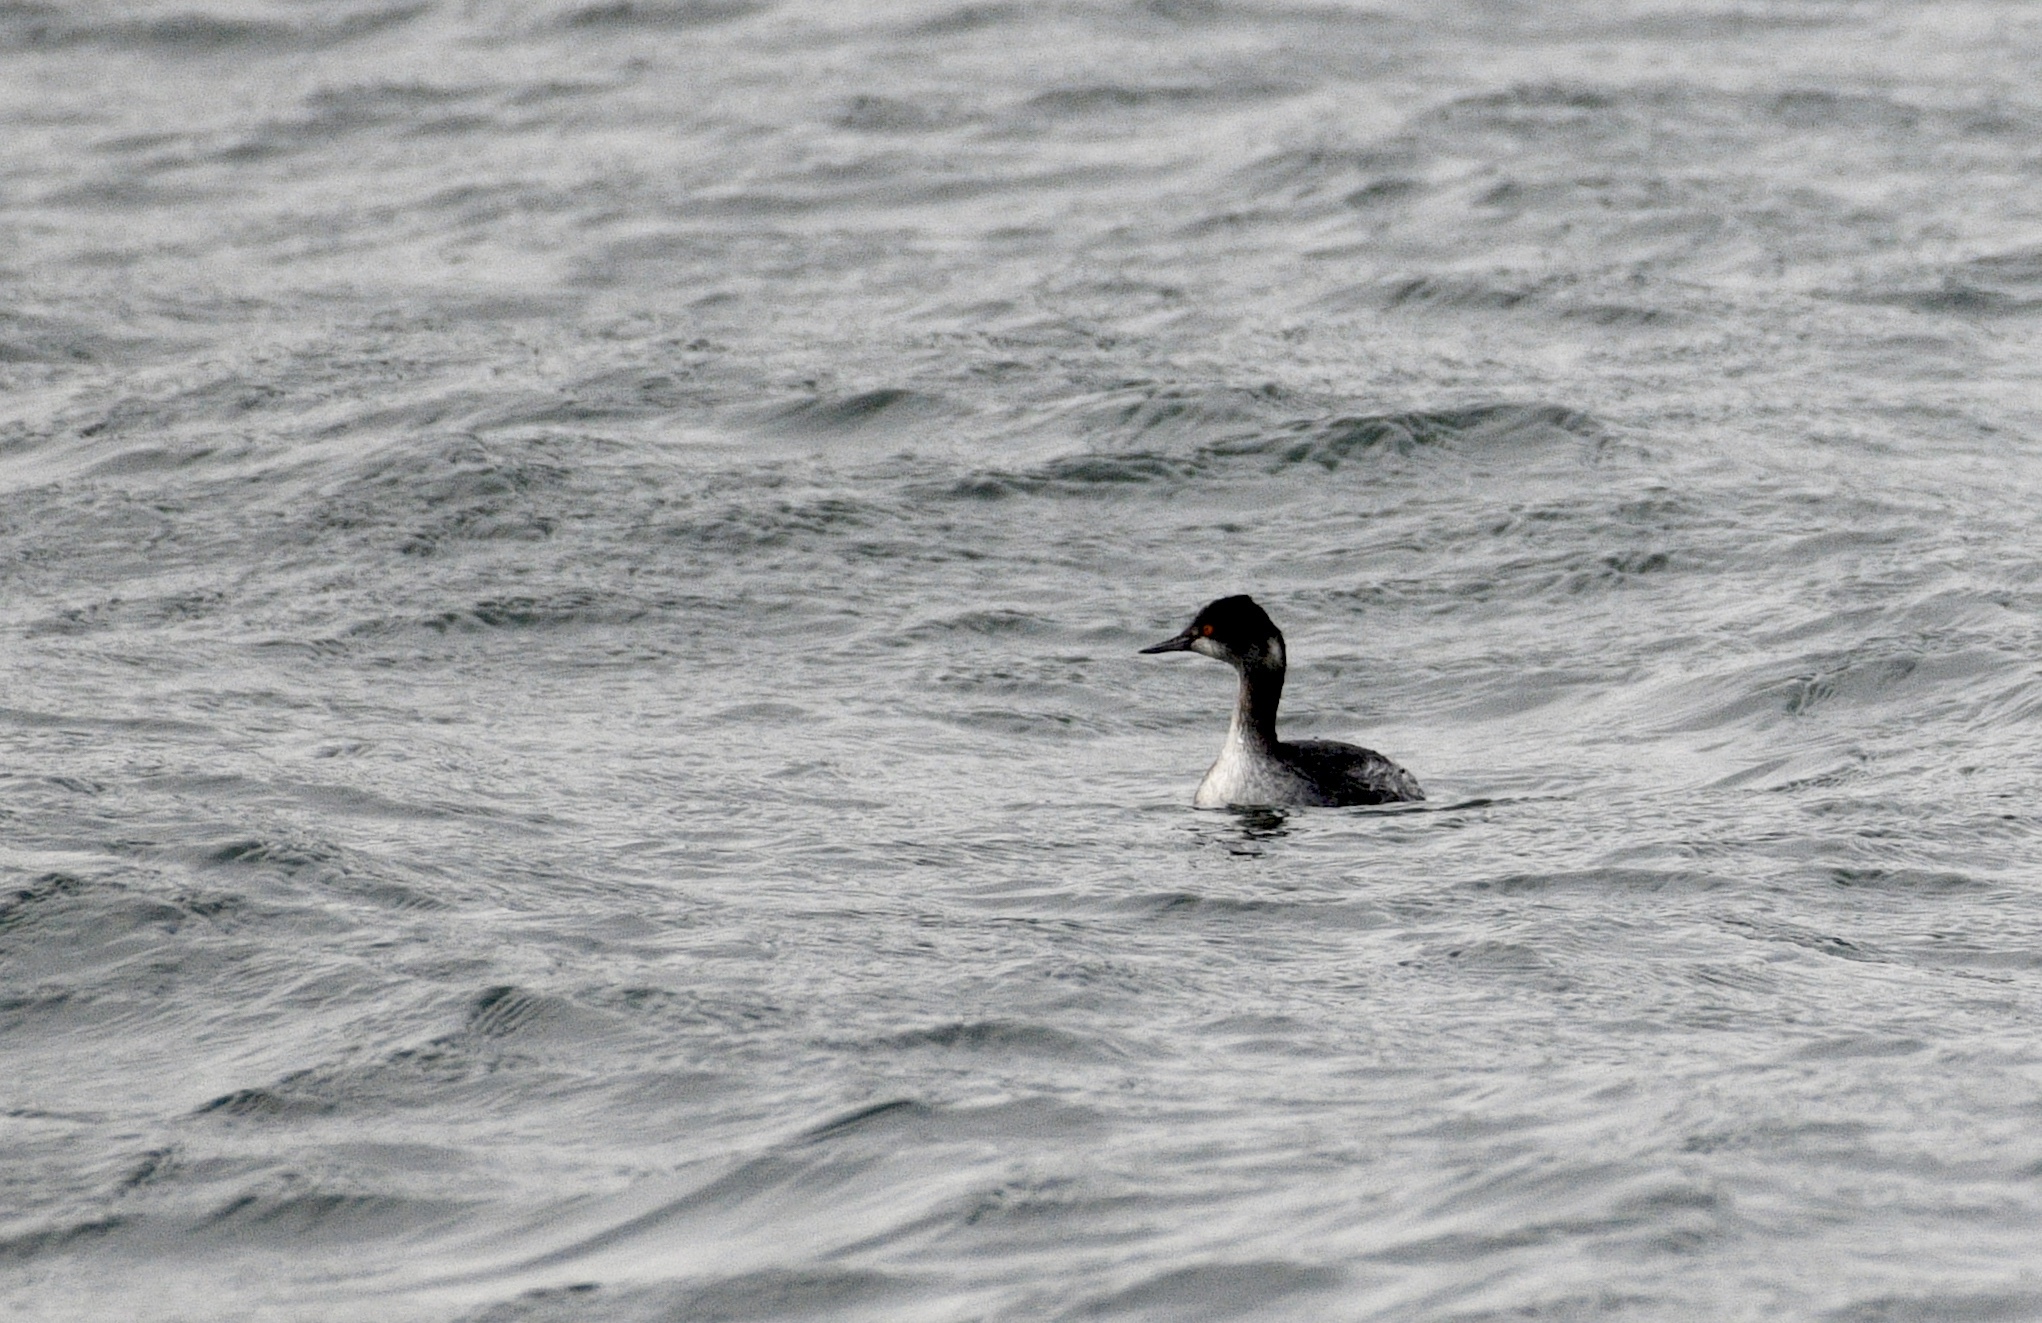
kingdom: Animalia
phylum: Chordata
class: Aves
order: Podicipediformes
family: Podicipedidae
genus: Podiceps
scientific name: Podiceps nigricollis
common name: Black-necked grebe
